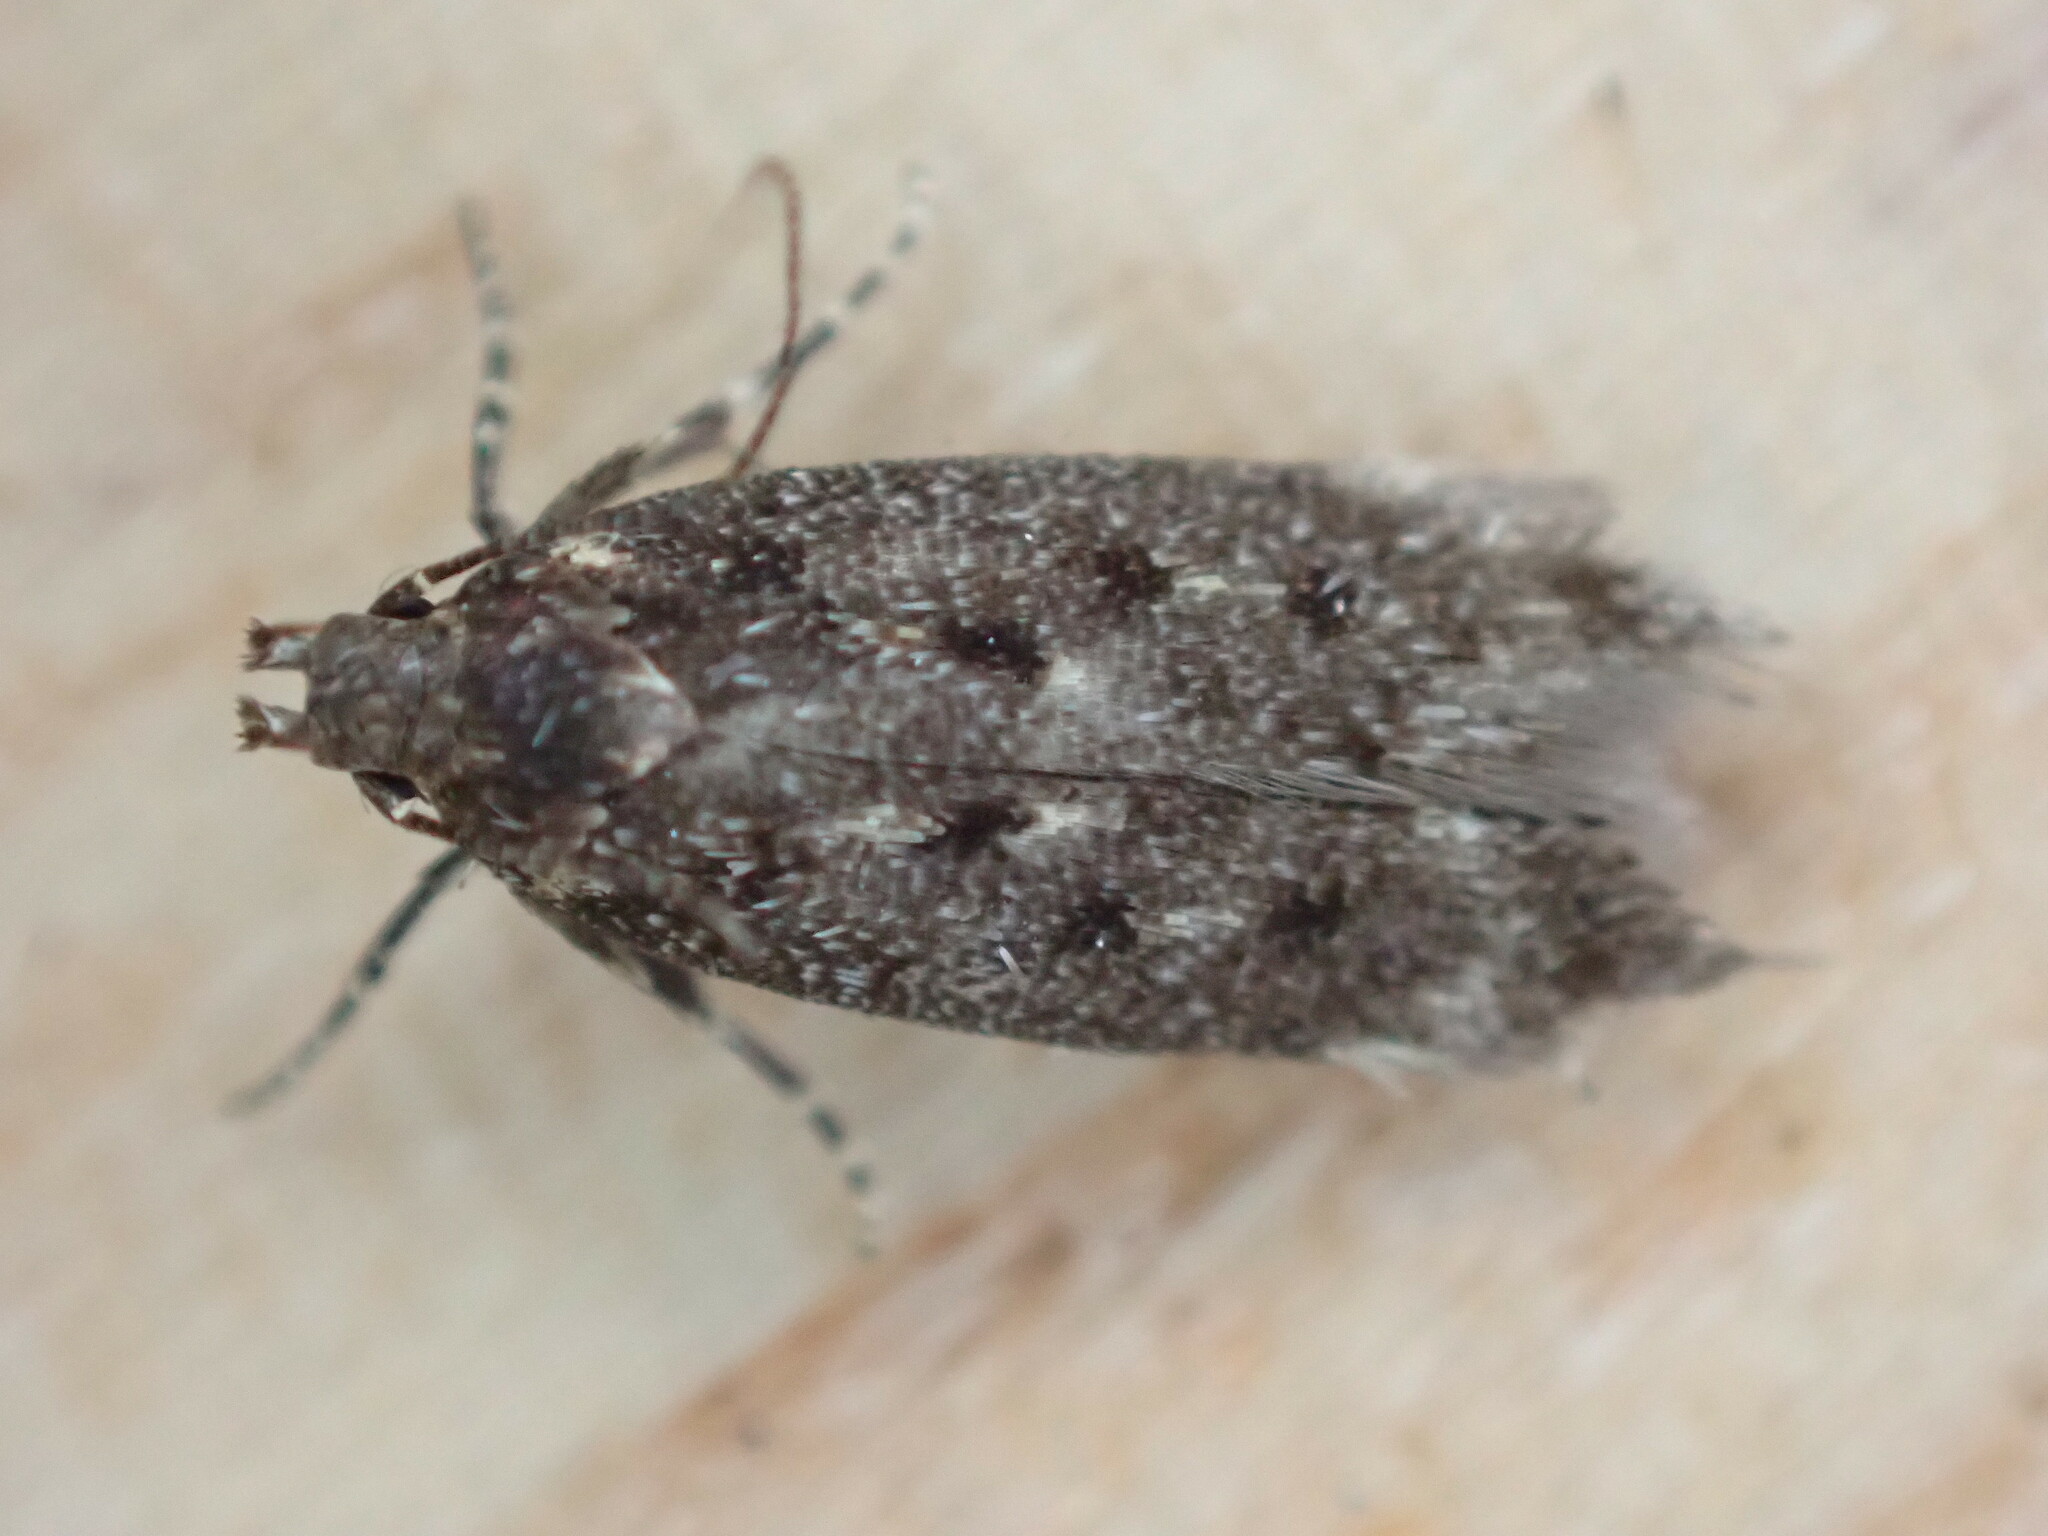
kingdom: Animalia
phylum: Arthropoda
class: Insecta
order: Lepidoptera
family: Gelechiidae
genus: Bryotropha
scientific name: Bryotropha affinis
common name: Dark groundling
